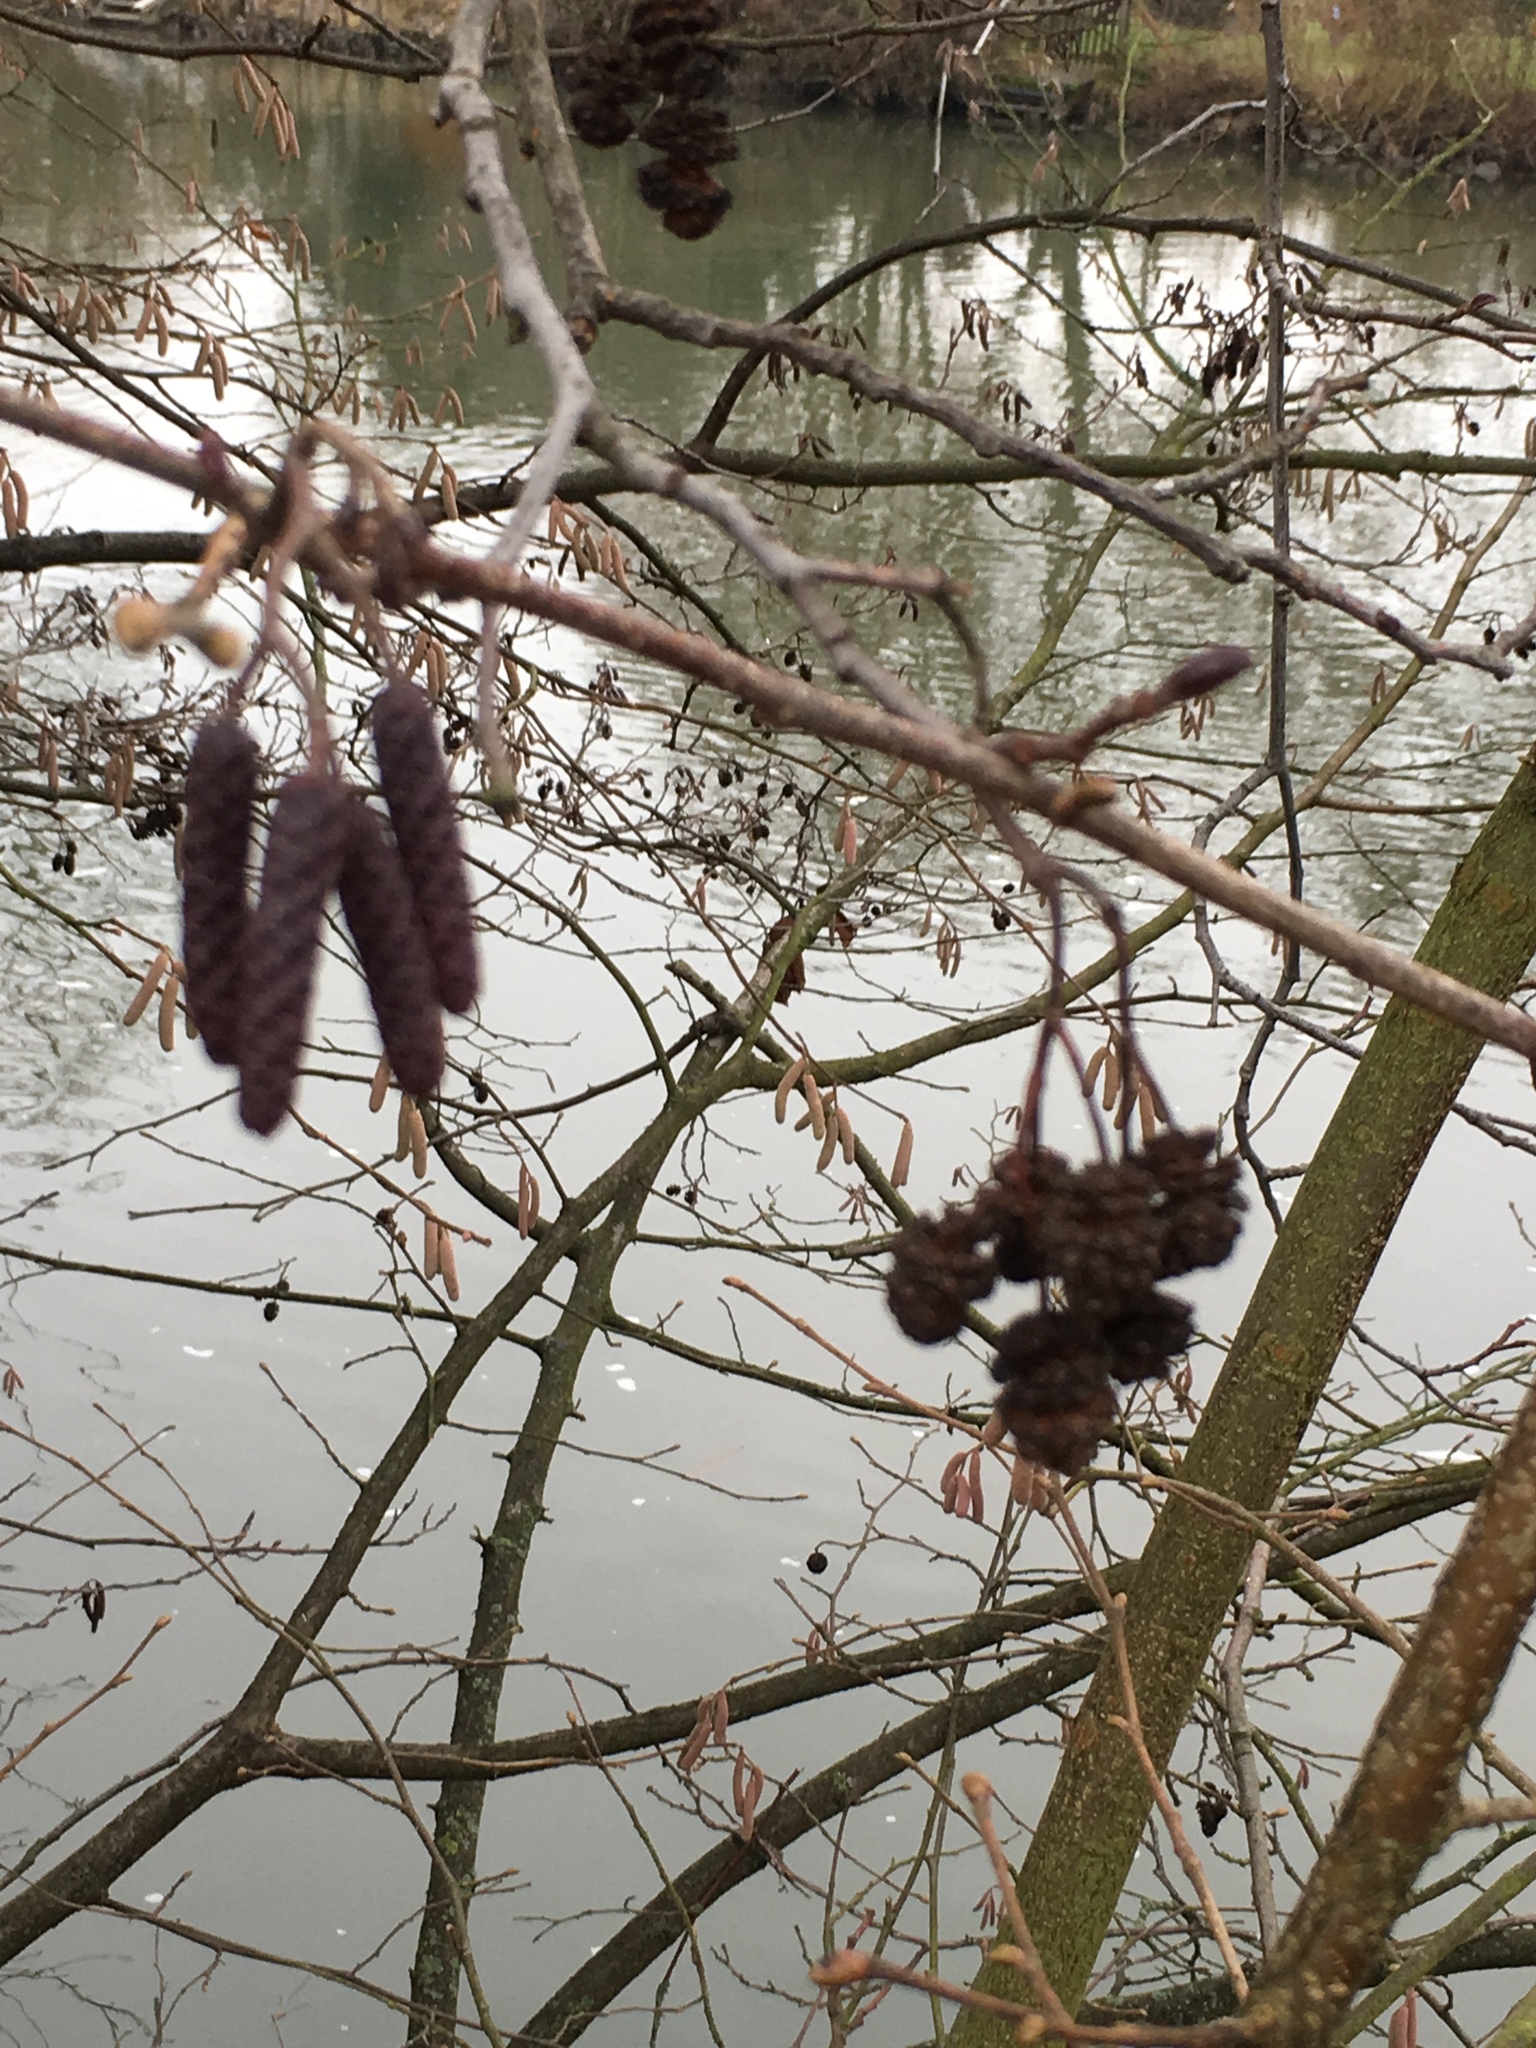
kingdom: Plantae
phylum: Tracheophyta
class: Magnoliopsida
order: Fagales
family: Betulaceae
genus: Alnus
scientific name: Alnus glutinosa
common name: Black alder
